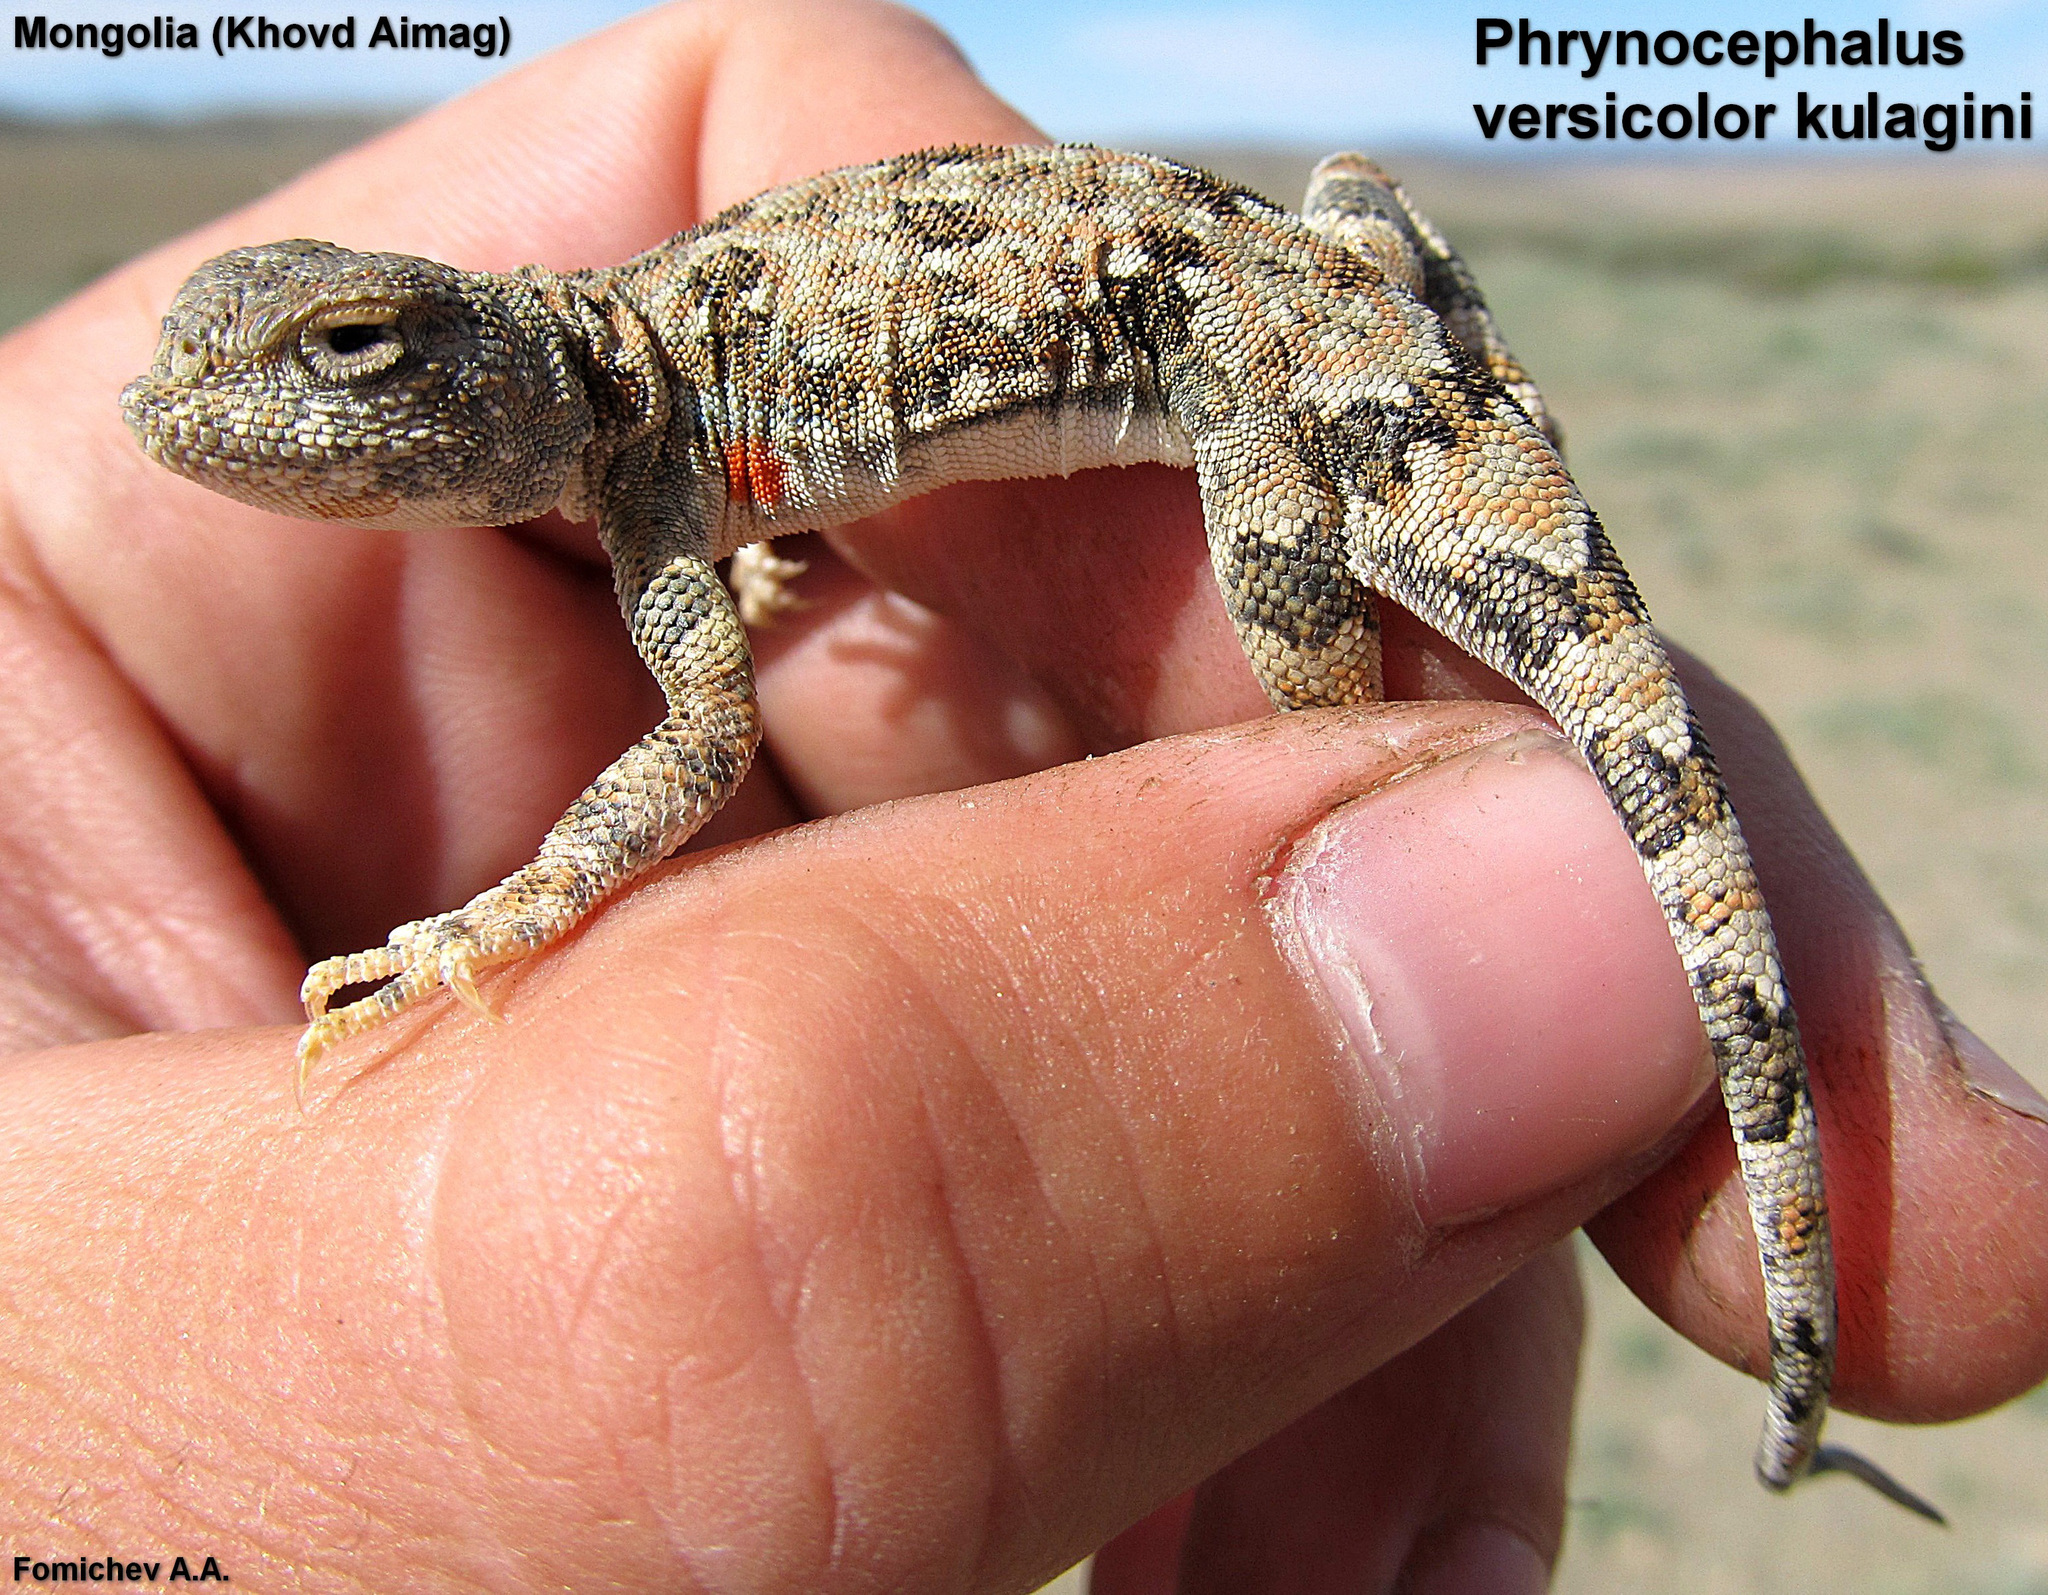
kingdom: Animalia
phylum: Chordata
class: Squamata
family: Agamidae
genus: Phrynocephalus
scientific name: Phrynocephalus versicolor
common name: Tuvan toad-headed agama
